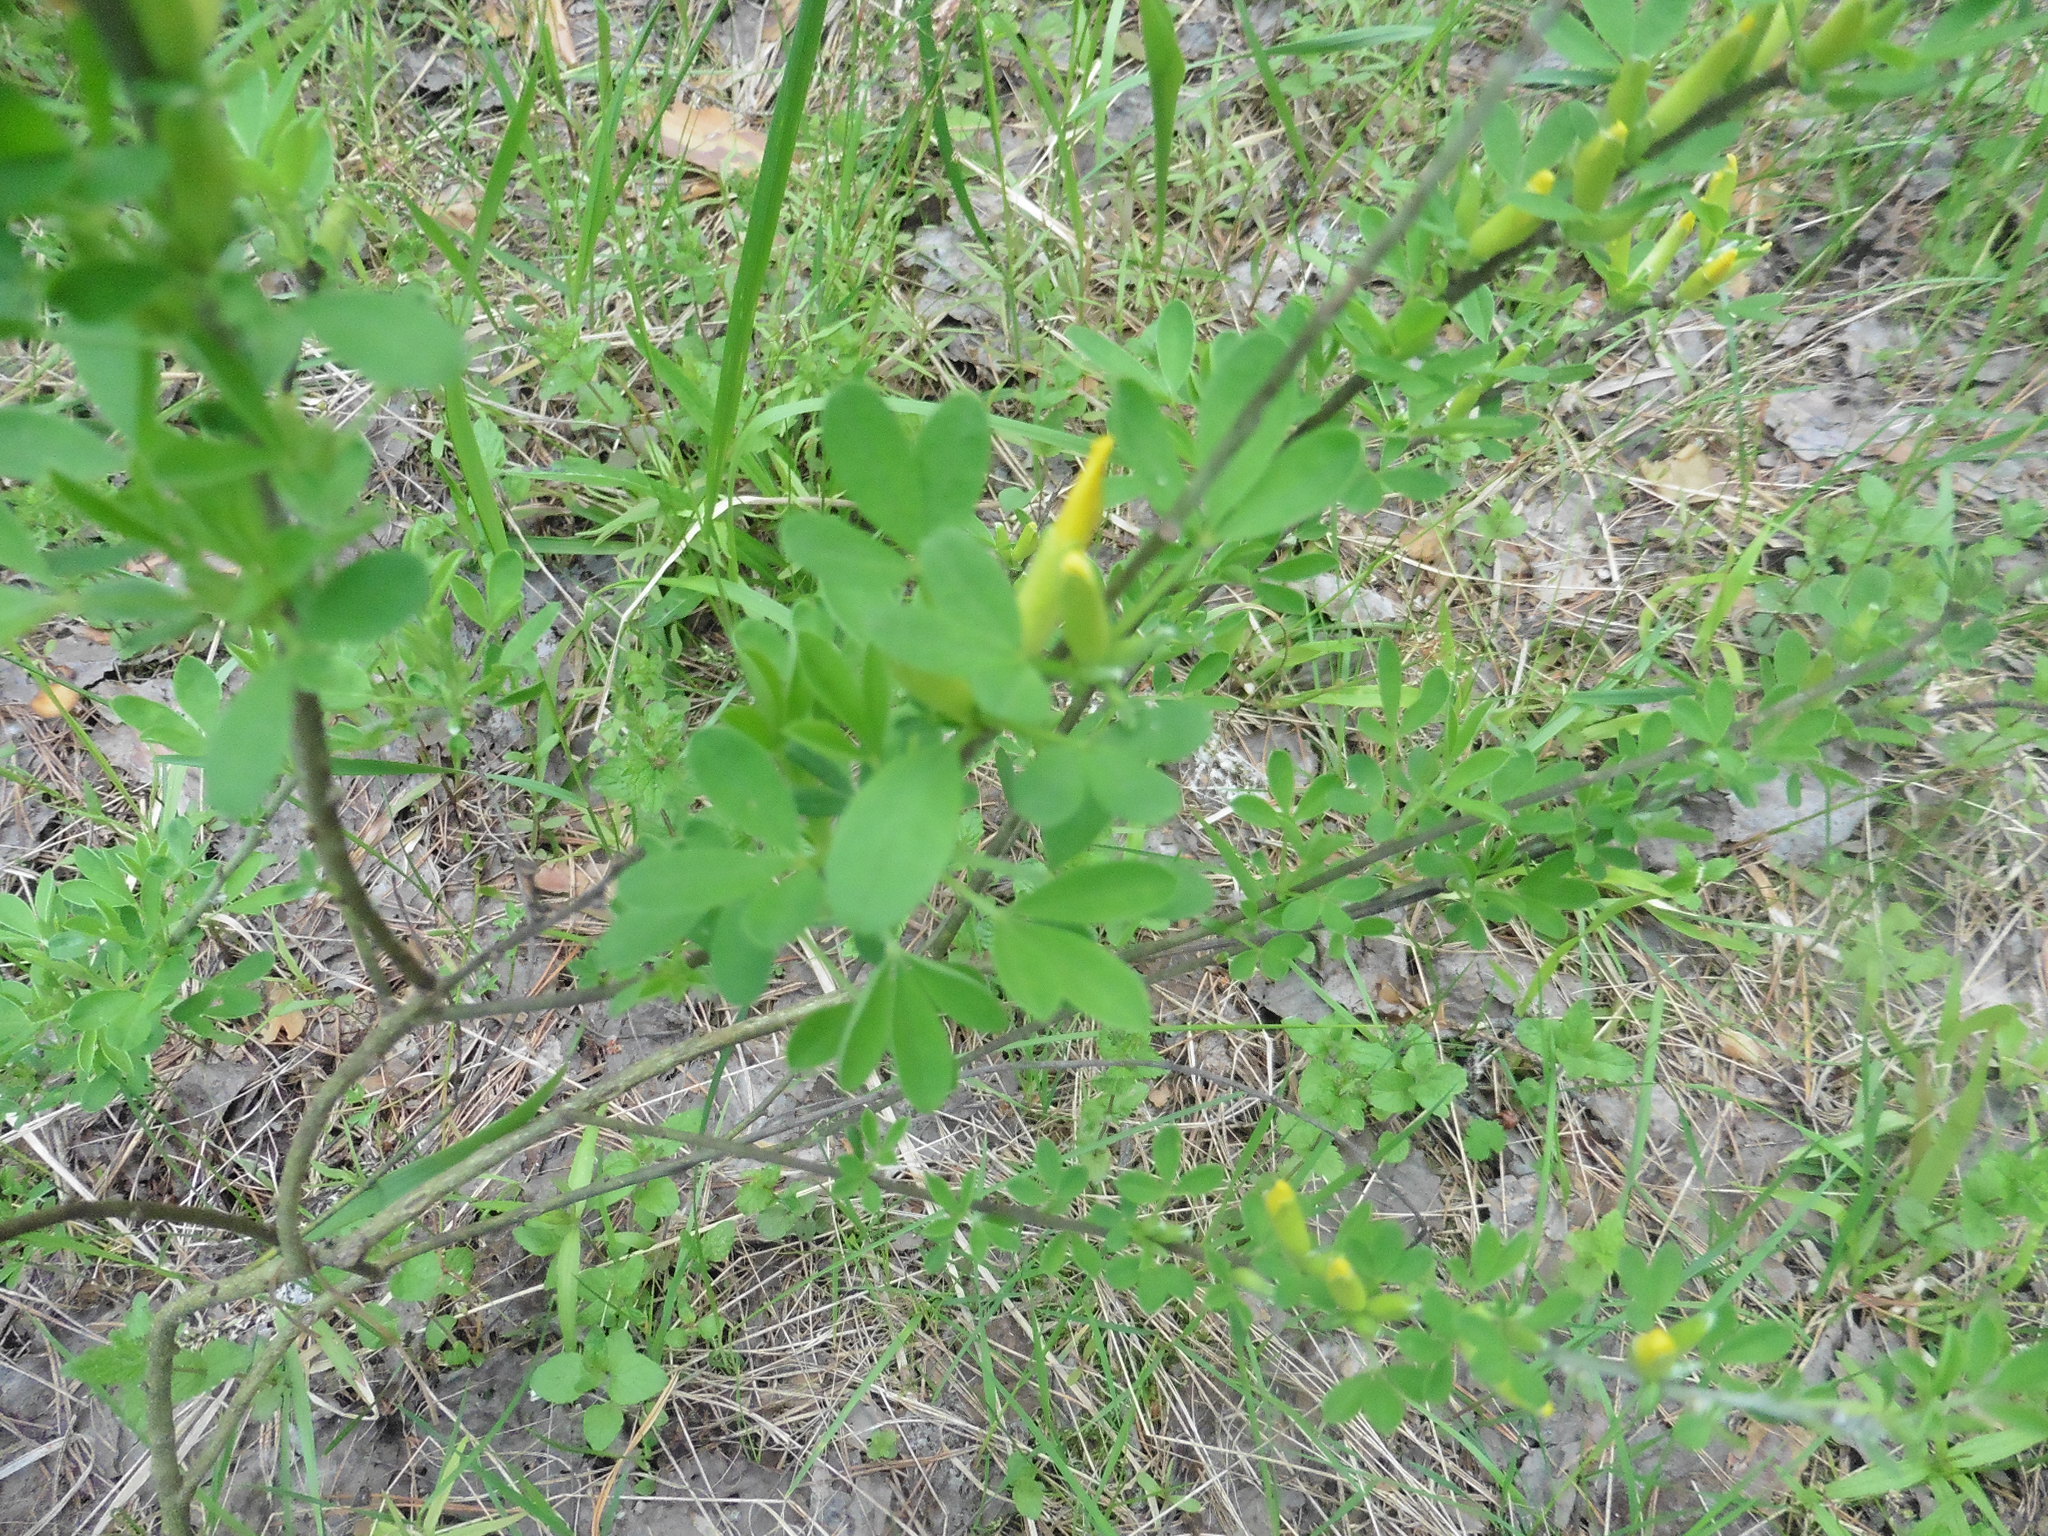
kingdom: Plantae
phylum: Tracheophyta
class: Magnoliopsida
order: Fabales
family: Fabaceae
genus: Chamaecytisus
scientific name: Chamaecytisus ruthenicus
